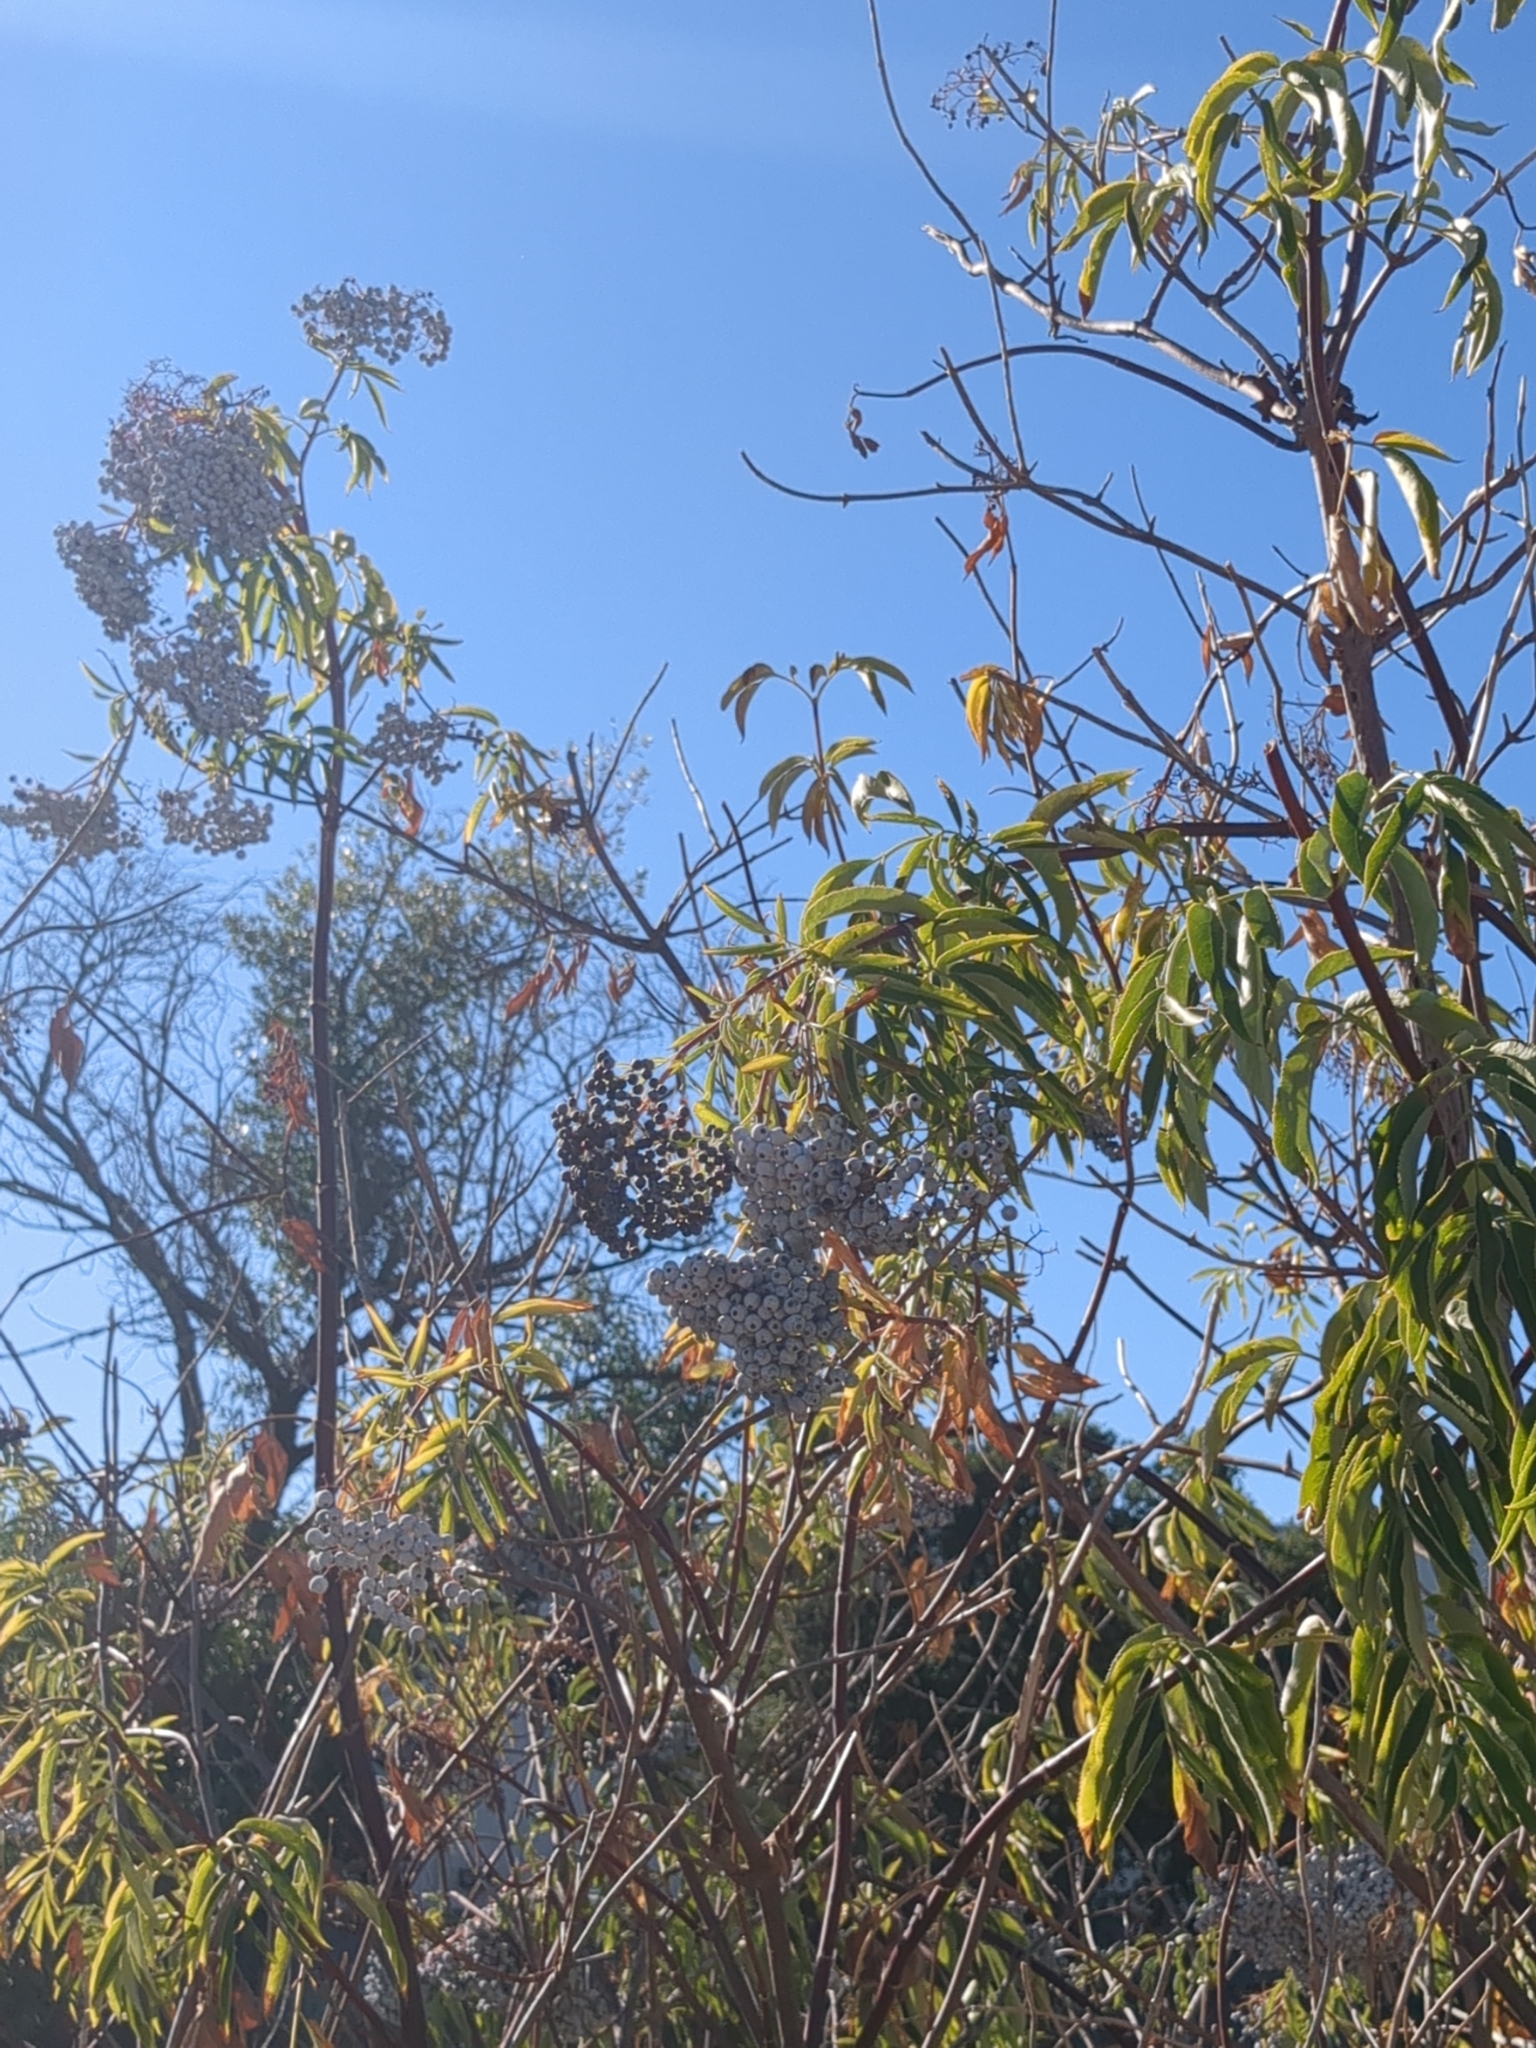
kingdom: Plantae
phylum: Tracheophyta
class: Magnoliopsida
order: Dipsacales
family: Viburnaceae
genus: Sambucus
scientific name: Sambucus cerulea
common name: Blue elder
